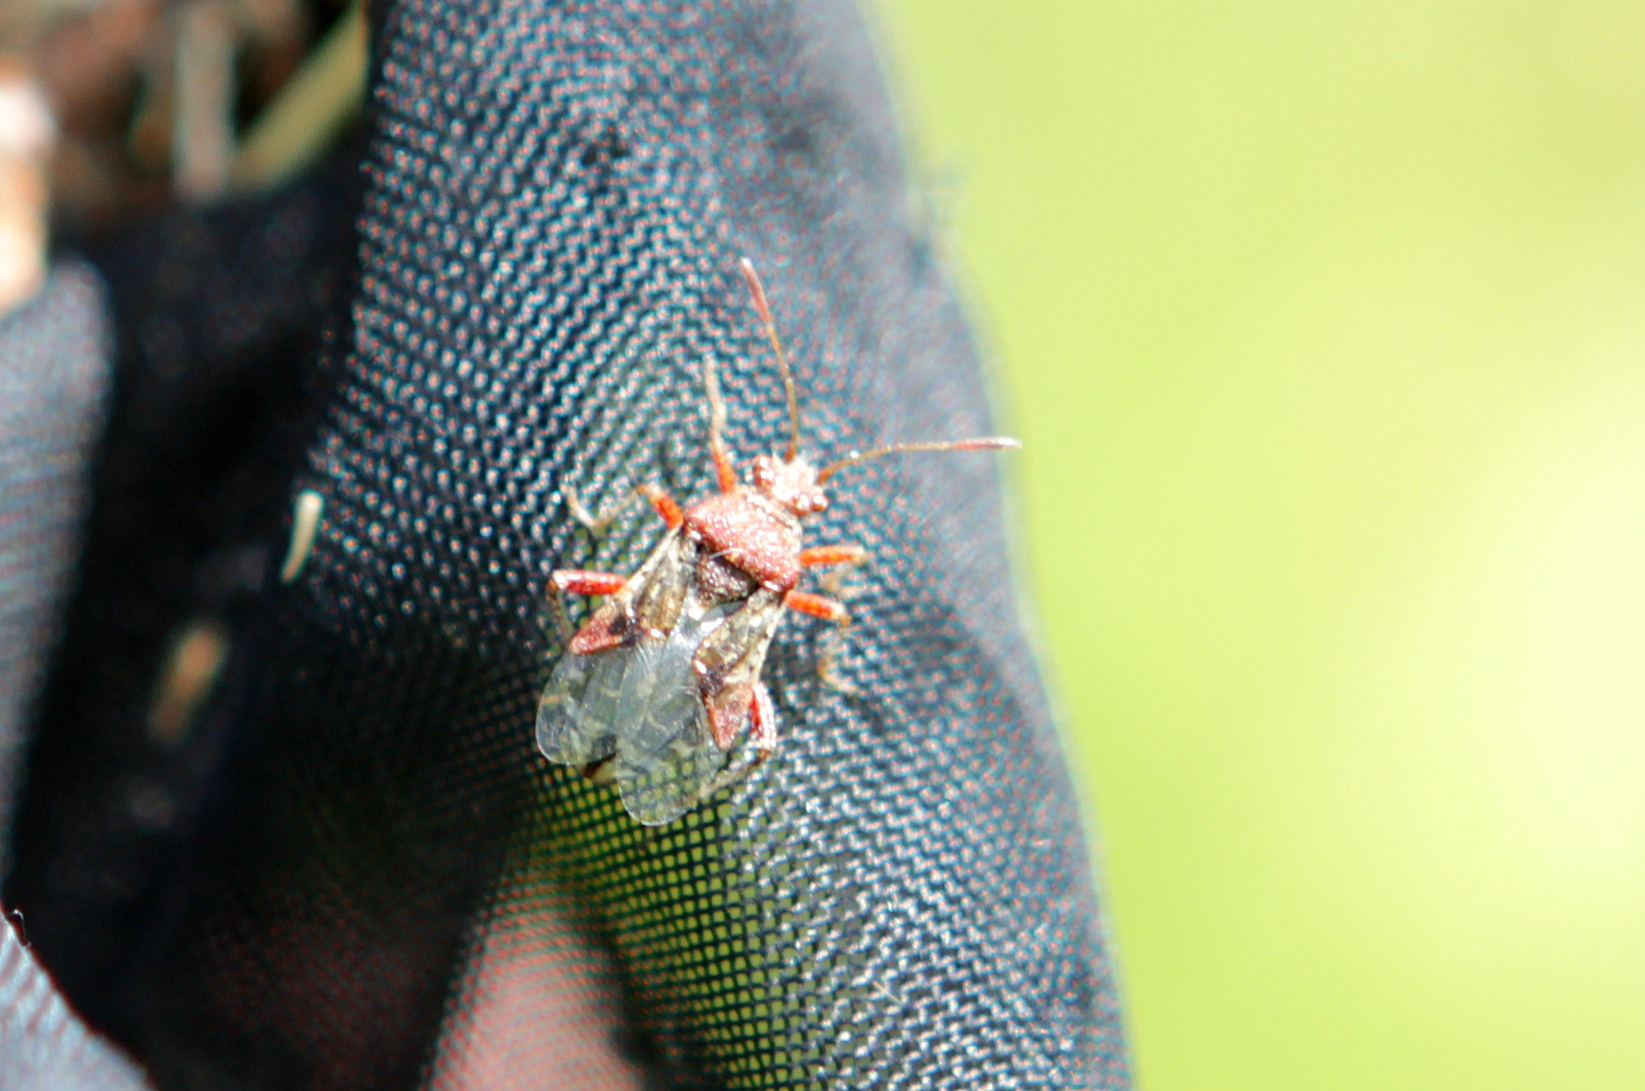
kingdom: Animalia
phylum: Arthropoda
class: Insecta
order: Hemiptera
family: Rhopalidae
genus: Rhopalus
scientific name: Rhopalus subrufus
